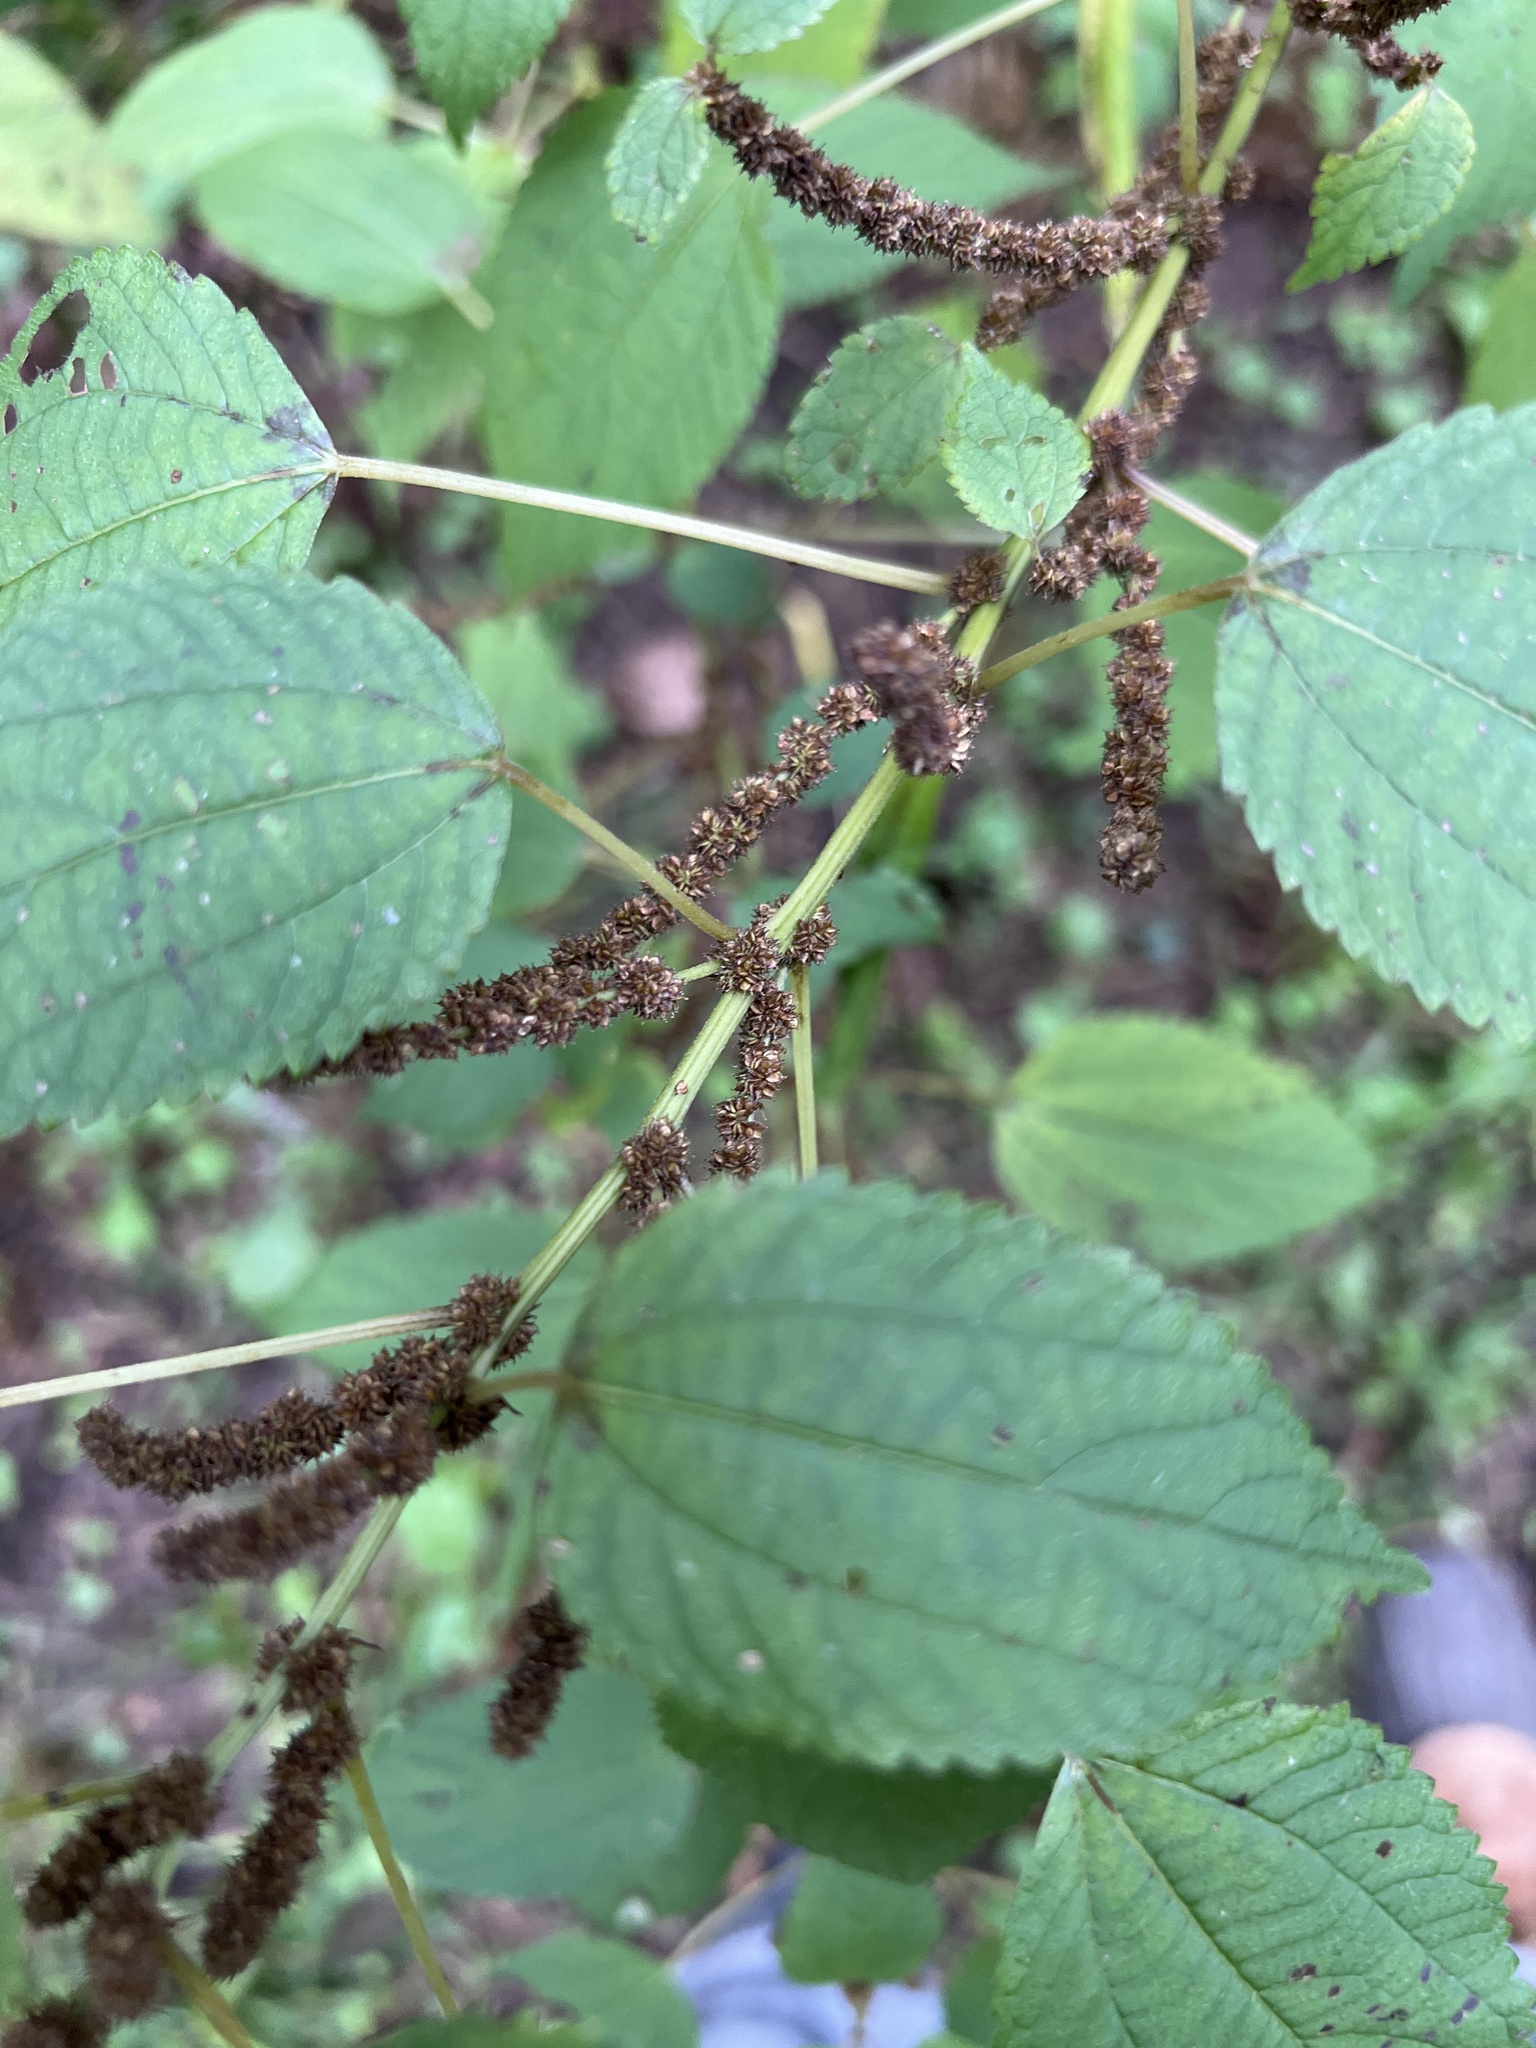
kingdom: Plantae
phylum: Tracheophyta
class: Magnoliopsida
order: Rosales
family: Urticaceae
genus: Boehmeria
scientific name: Boehmeria cylindrica
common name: Bog-hemp
